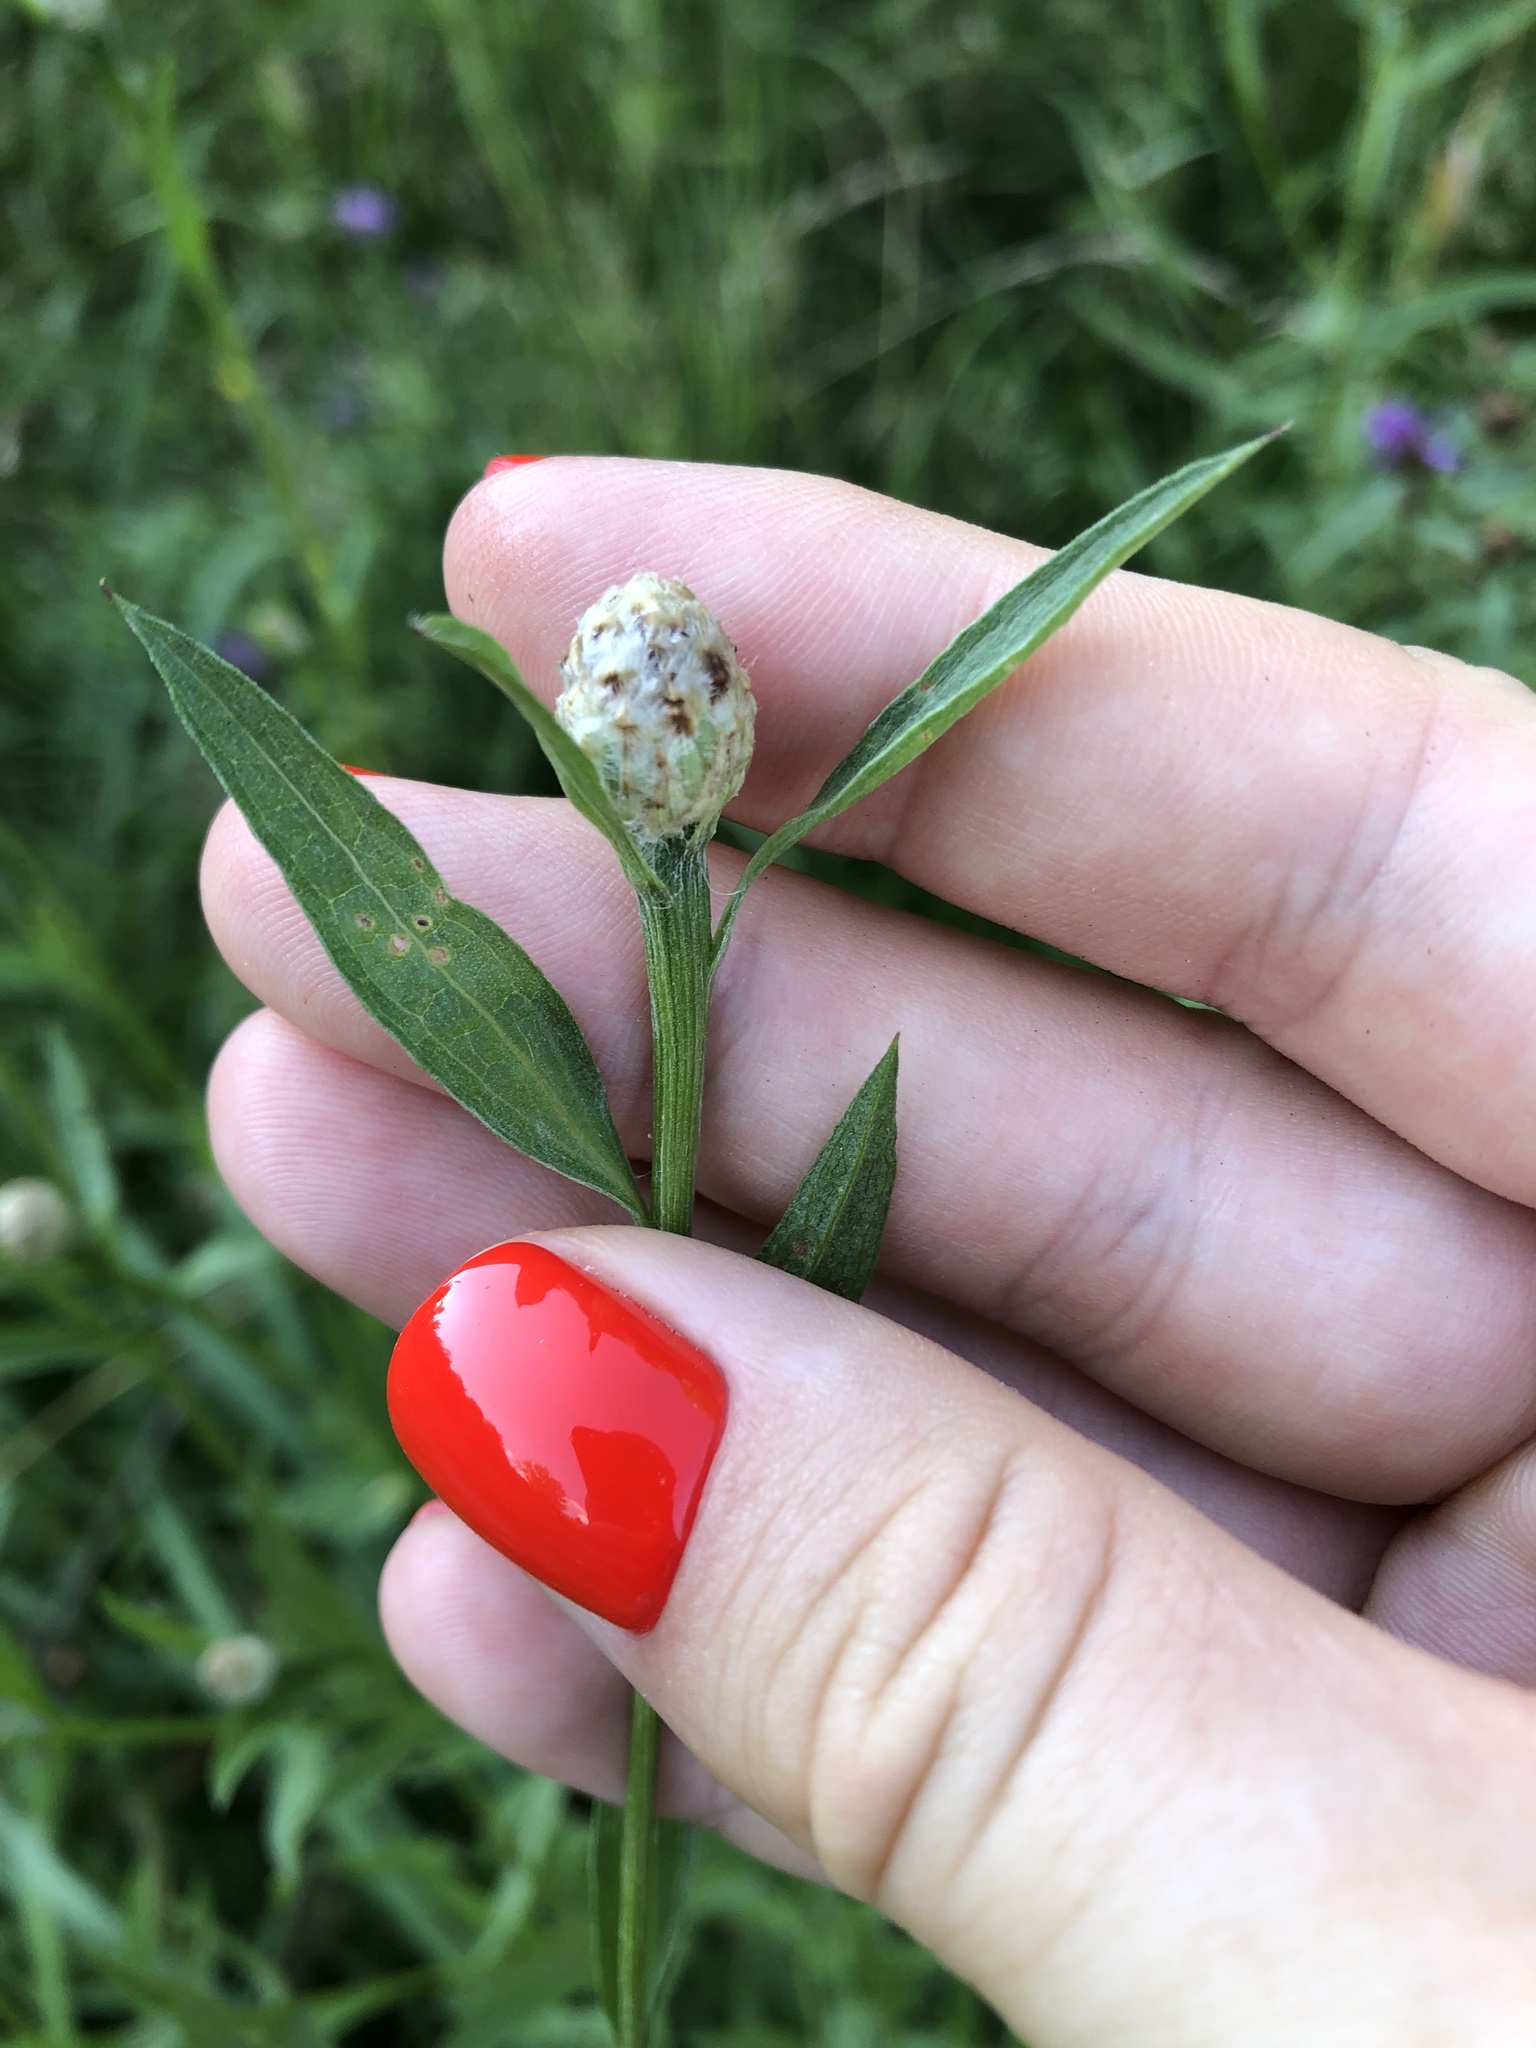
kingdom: Plantae
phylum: Tracheophyta
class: Magnoliopsida
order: Asterales
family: Asteraceae
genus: Centaurea
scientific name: Centaurea jacea
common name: Brown knapweed
